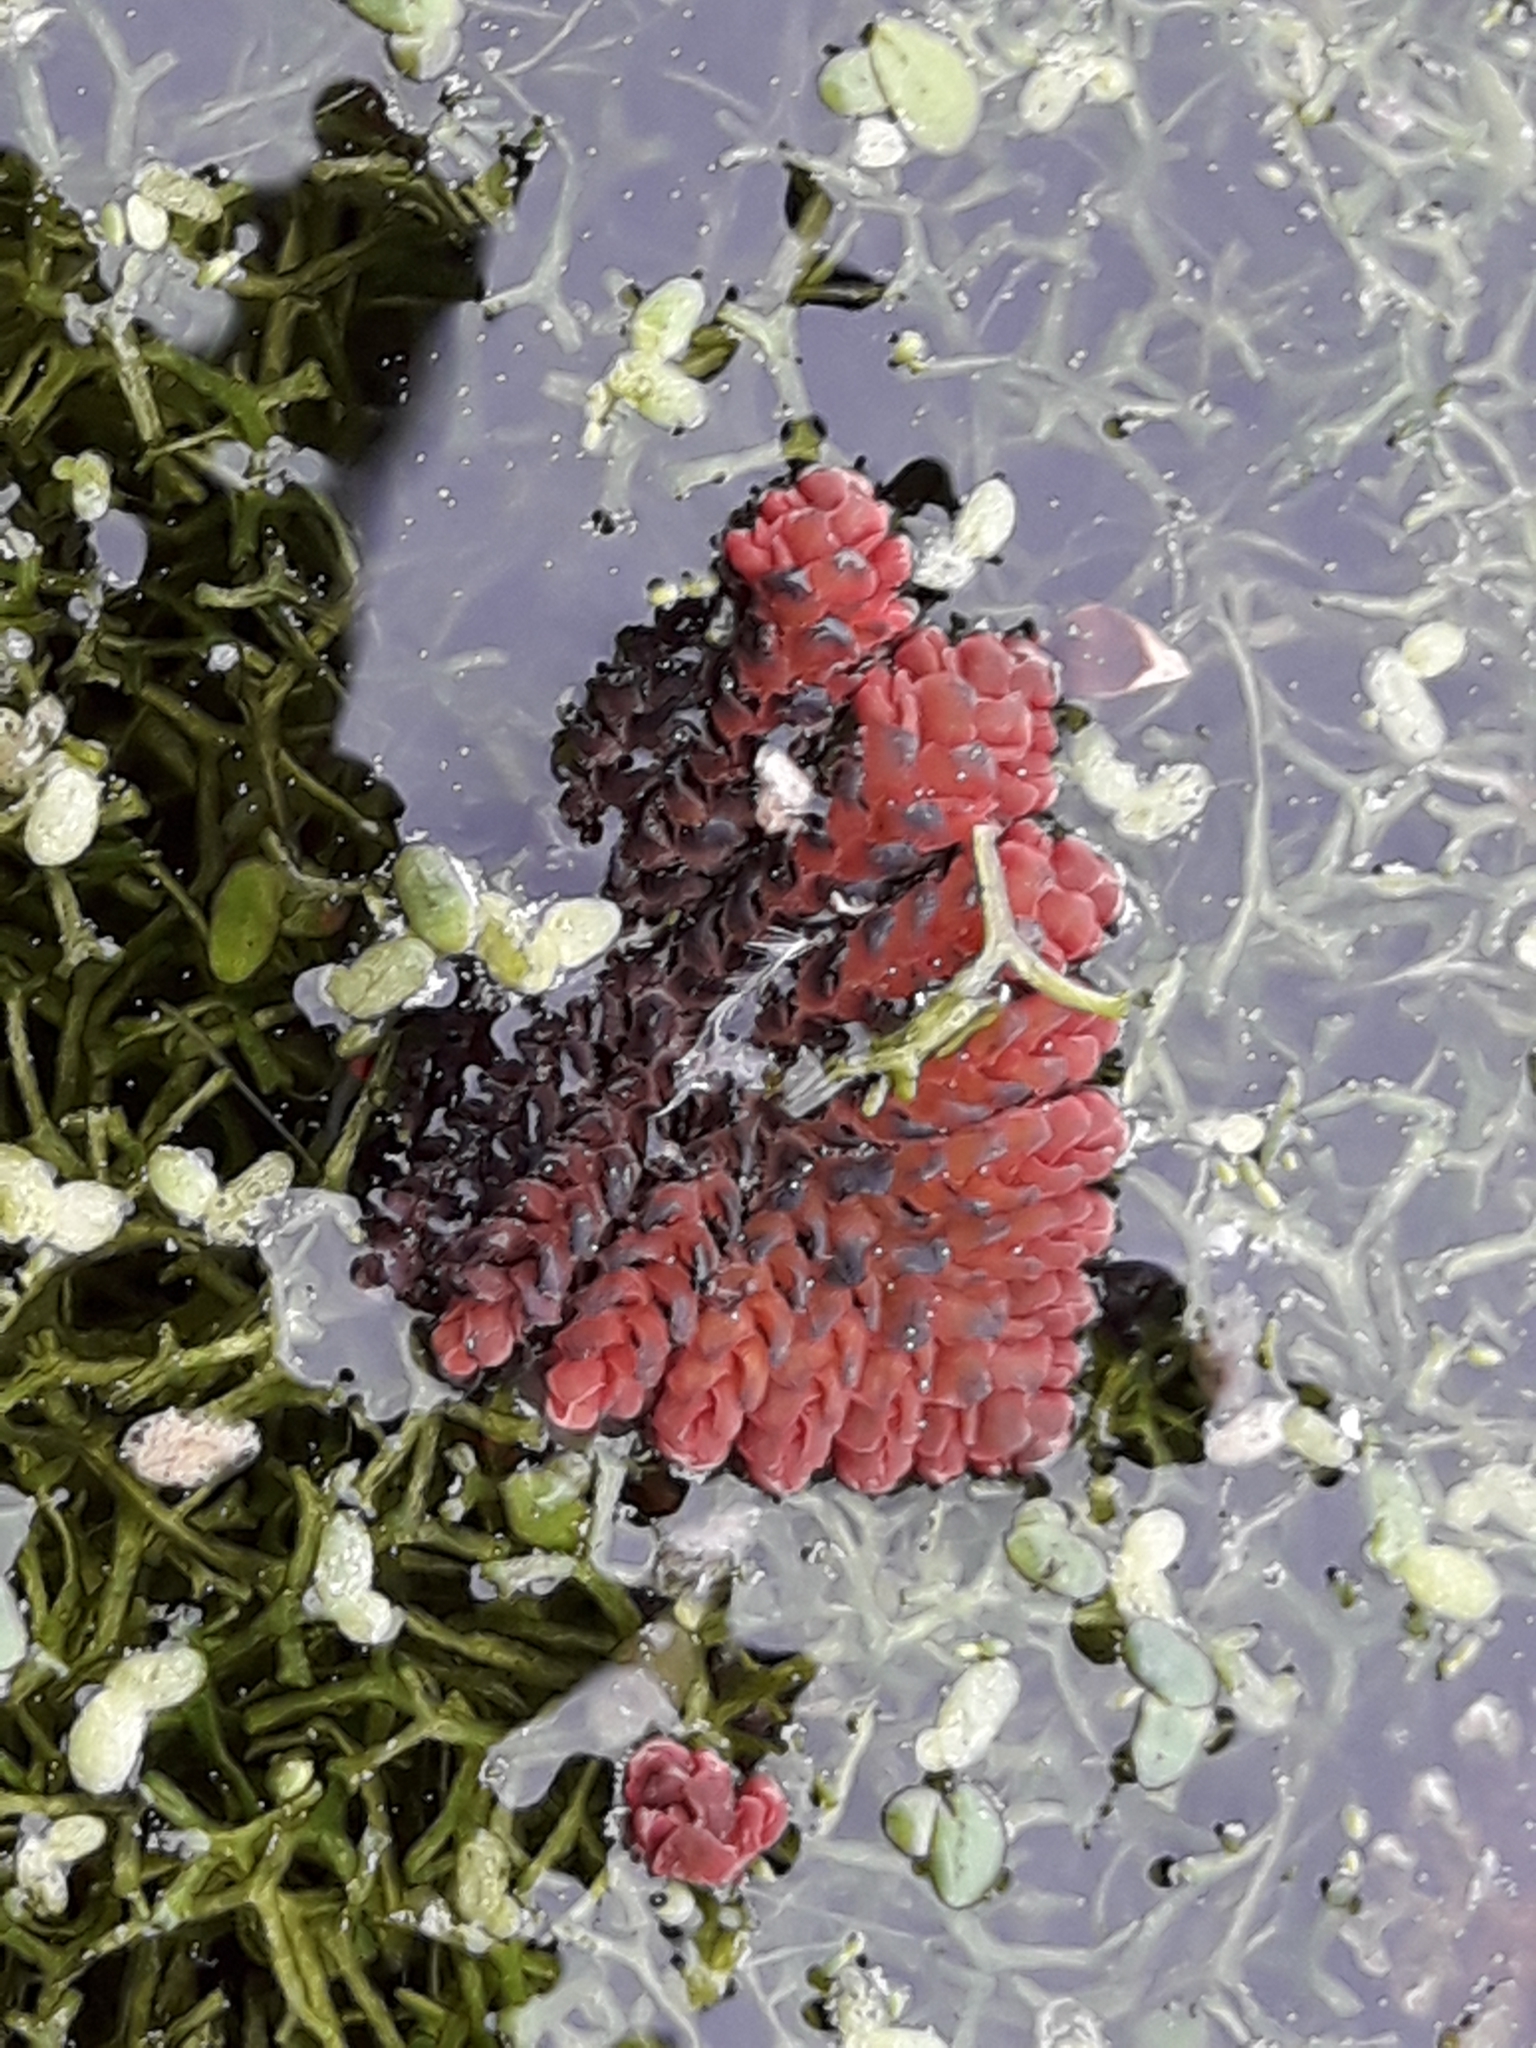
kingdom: Plantae
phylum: Tracheophyta
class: Polypodiopsida
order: Salviniales
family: Salviniaceae
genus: Azolla
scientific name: Azolla pinnata
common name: Ferny azolla
